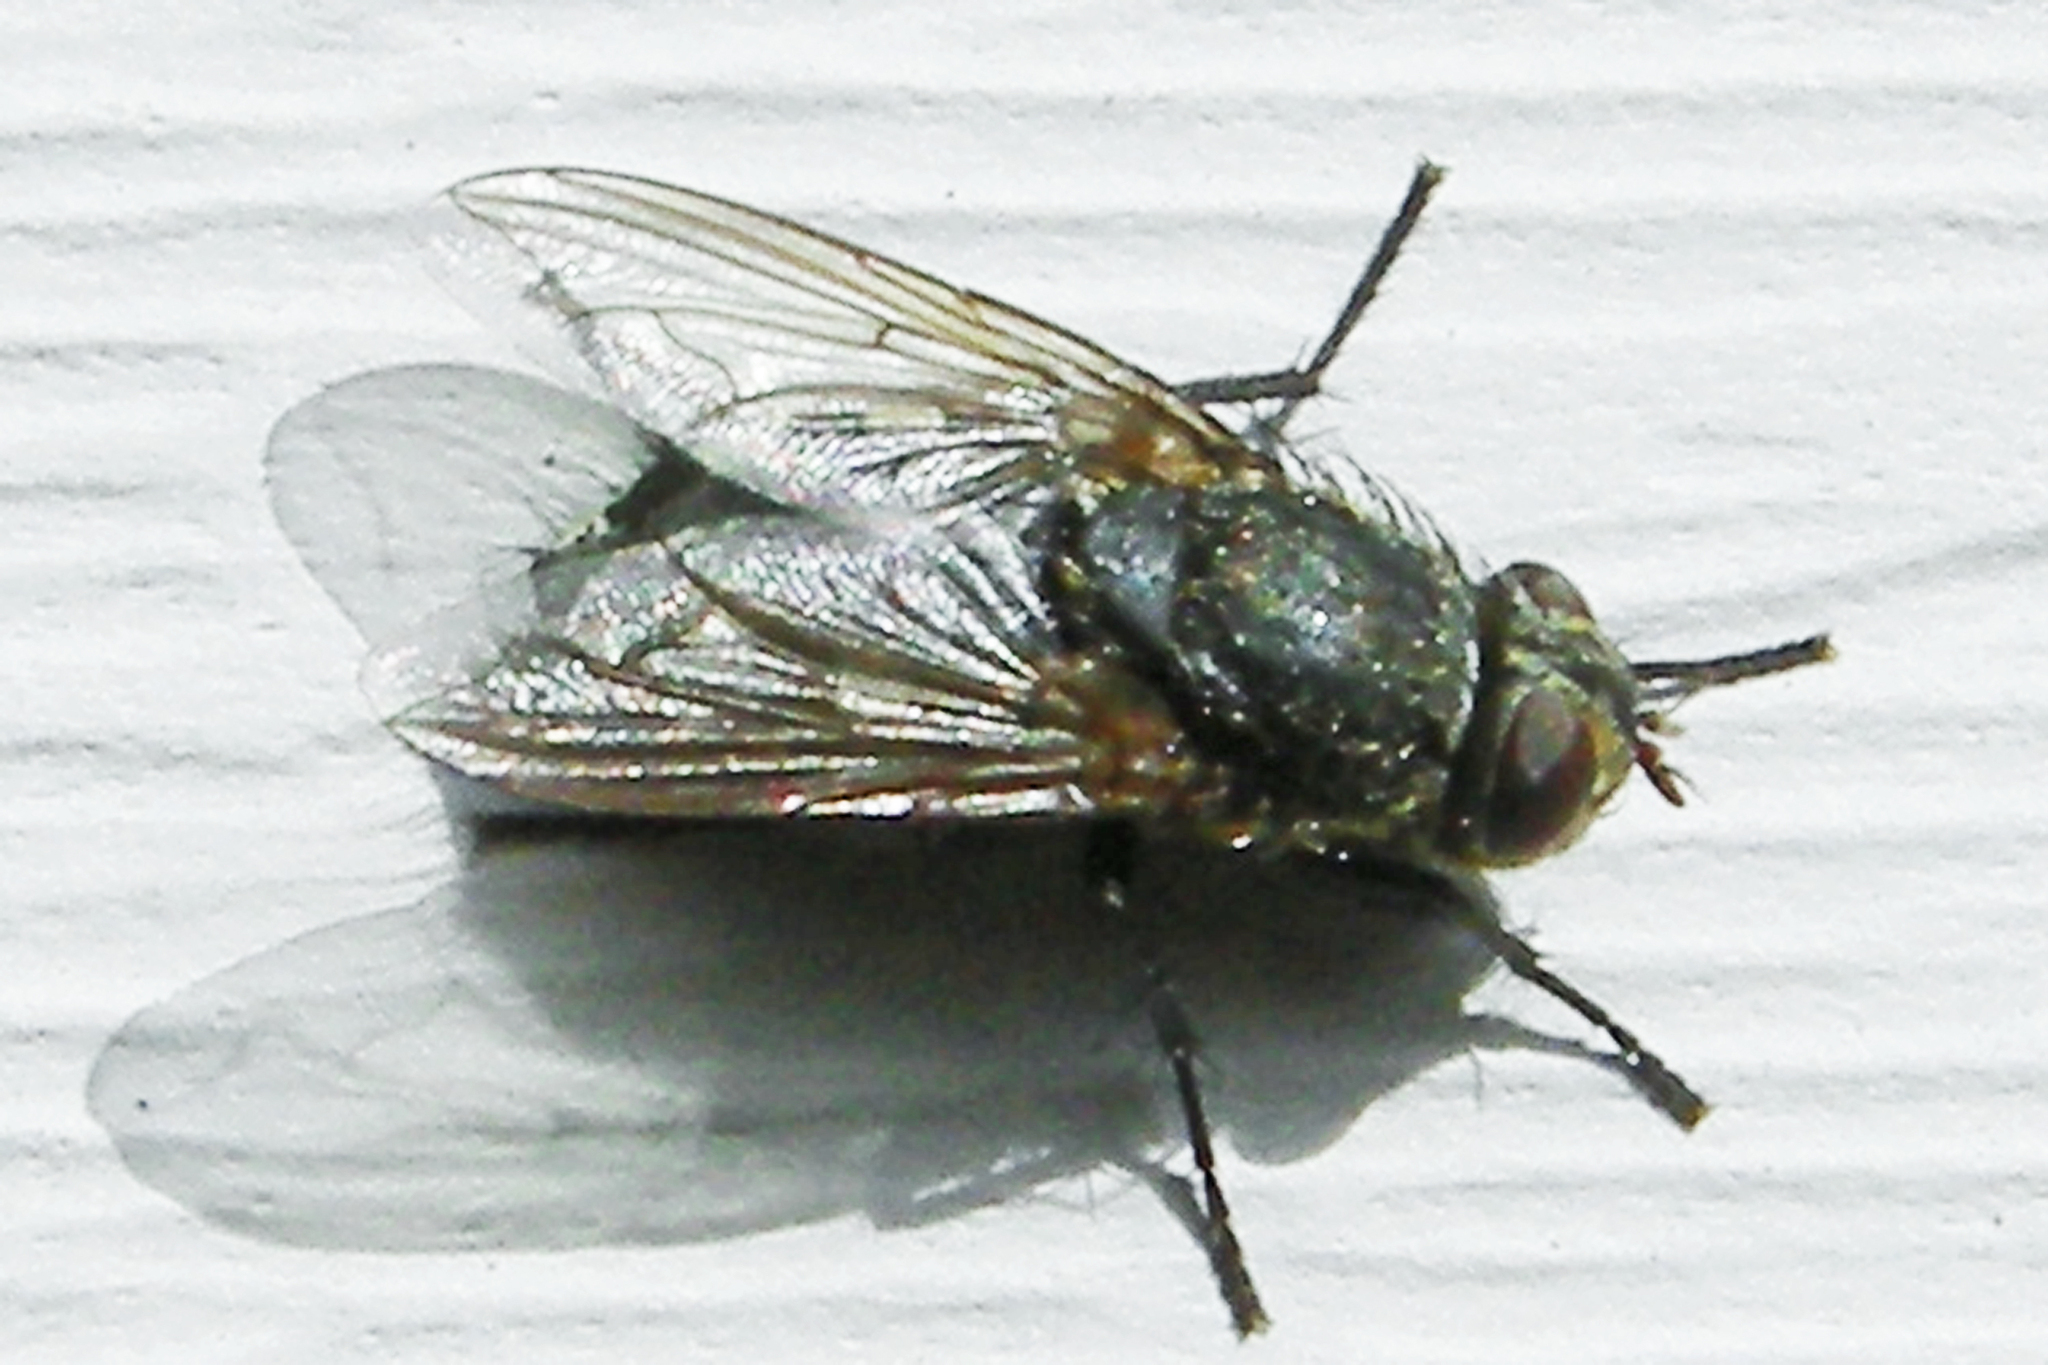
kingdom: Animalia
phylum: Arthropoda
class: Insecta
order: Diptera
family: Polleniidae
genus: Pollenia
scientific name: Pollenia
